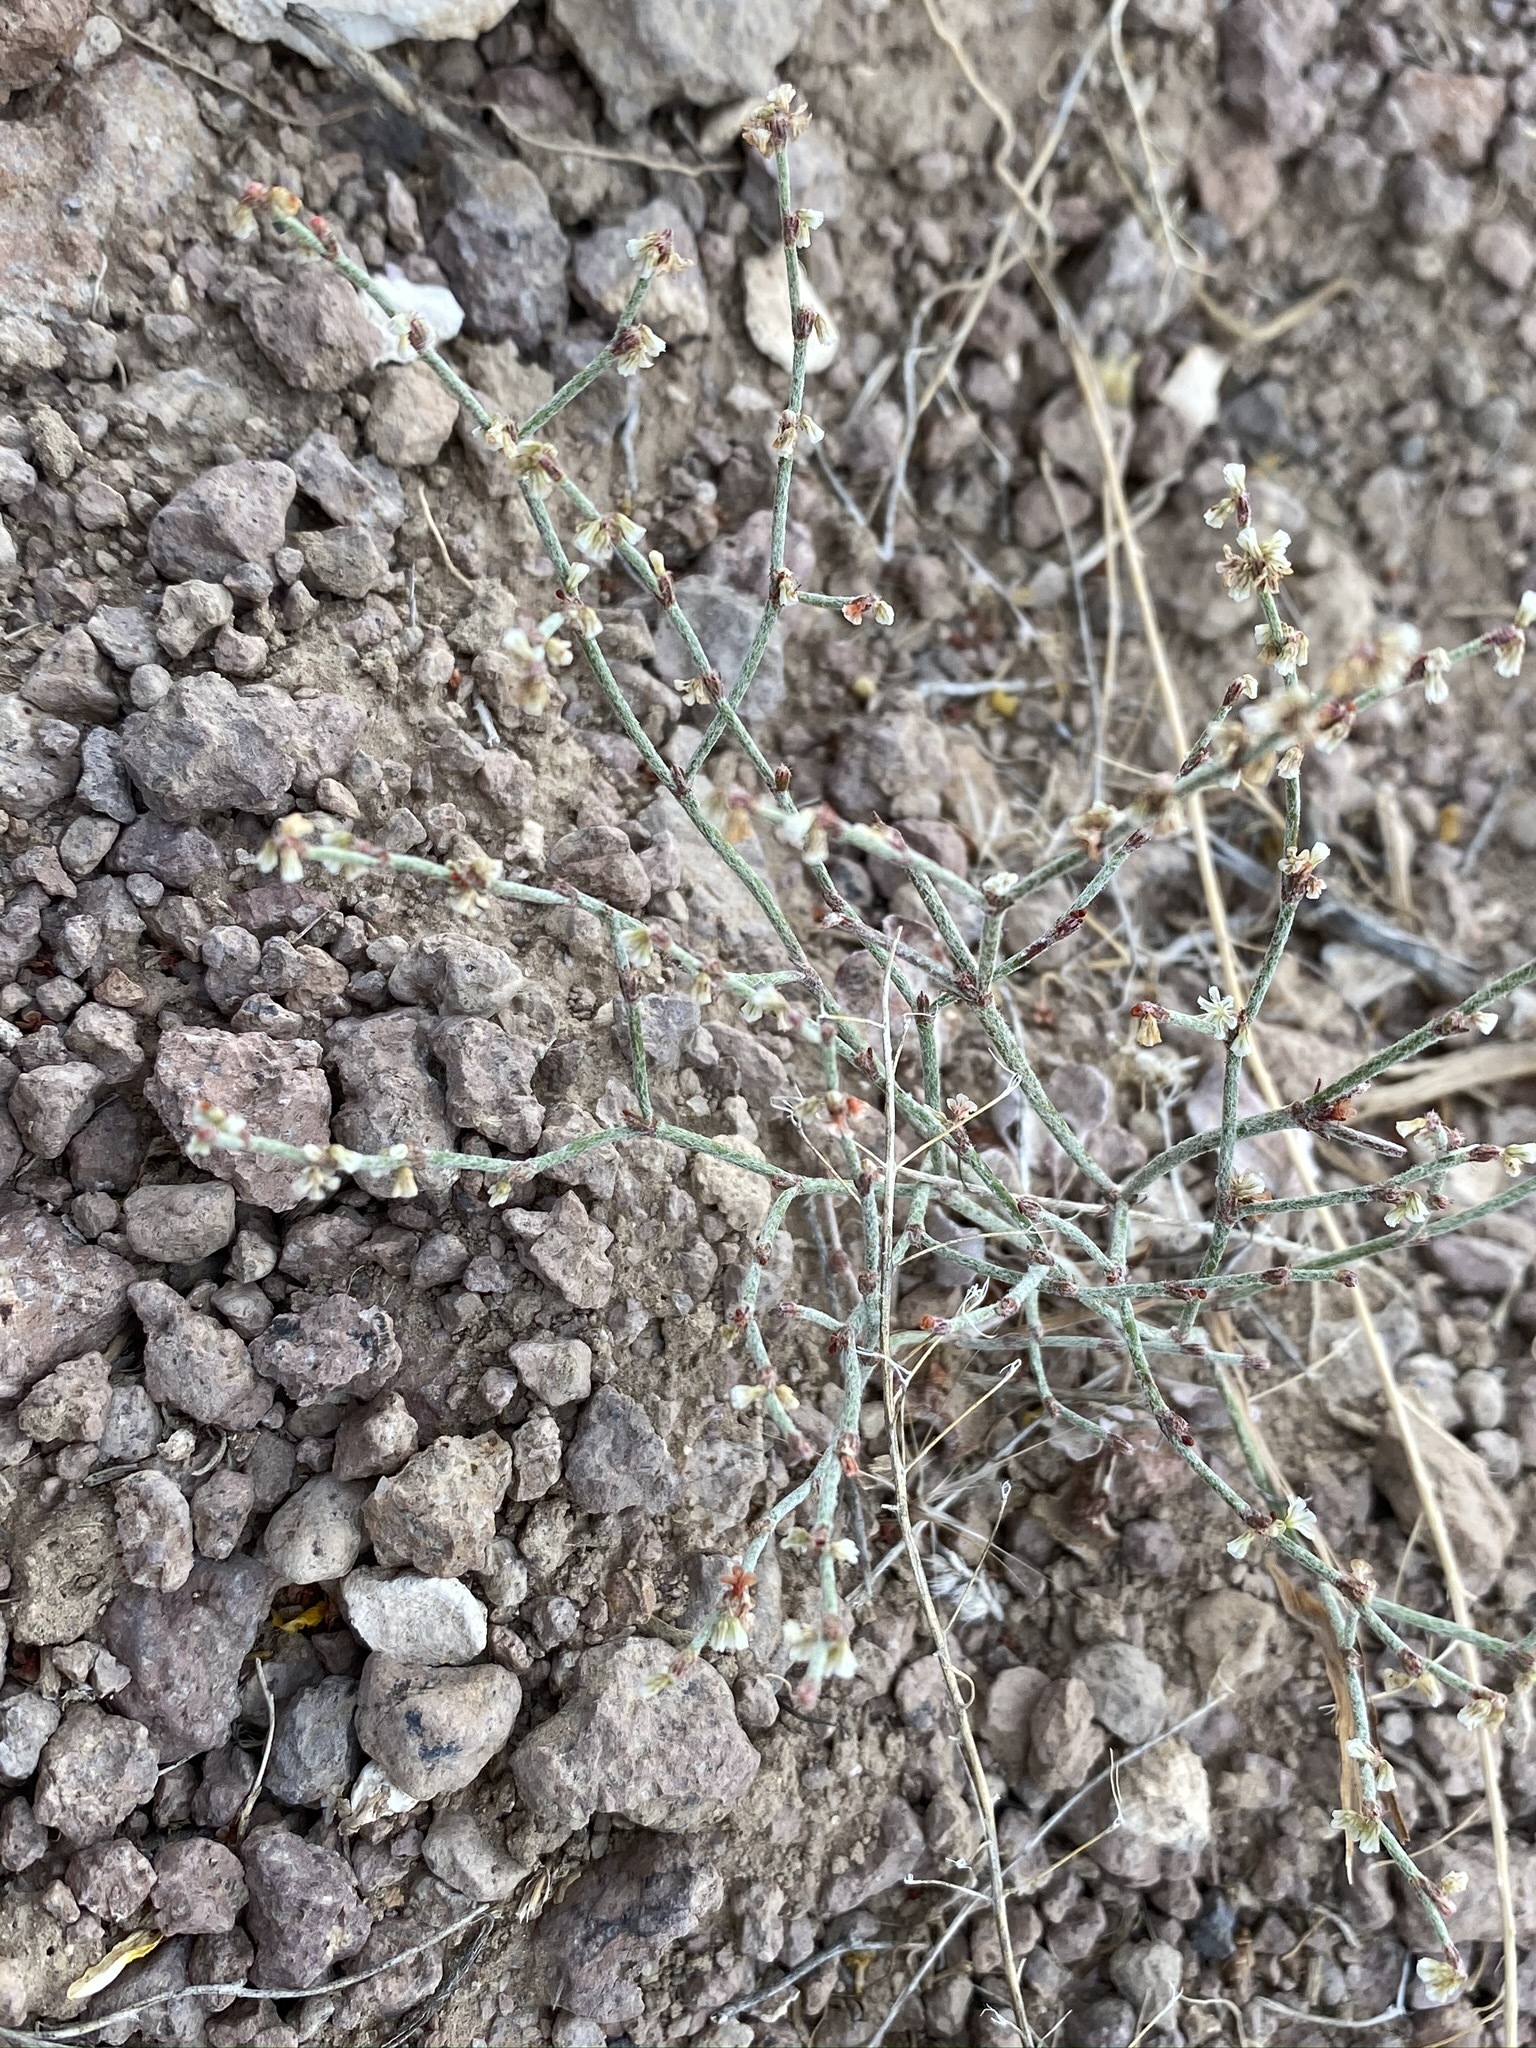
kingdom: Plantae
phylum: Tracheophyta
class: Magnoliopsida
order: Caryophyllales
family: Polygonaceae
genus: Eriogonum
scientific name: Eriogonum palmerianum
